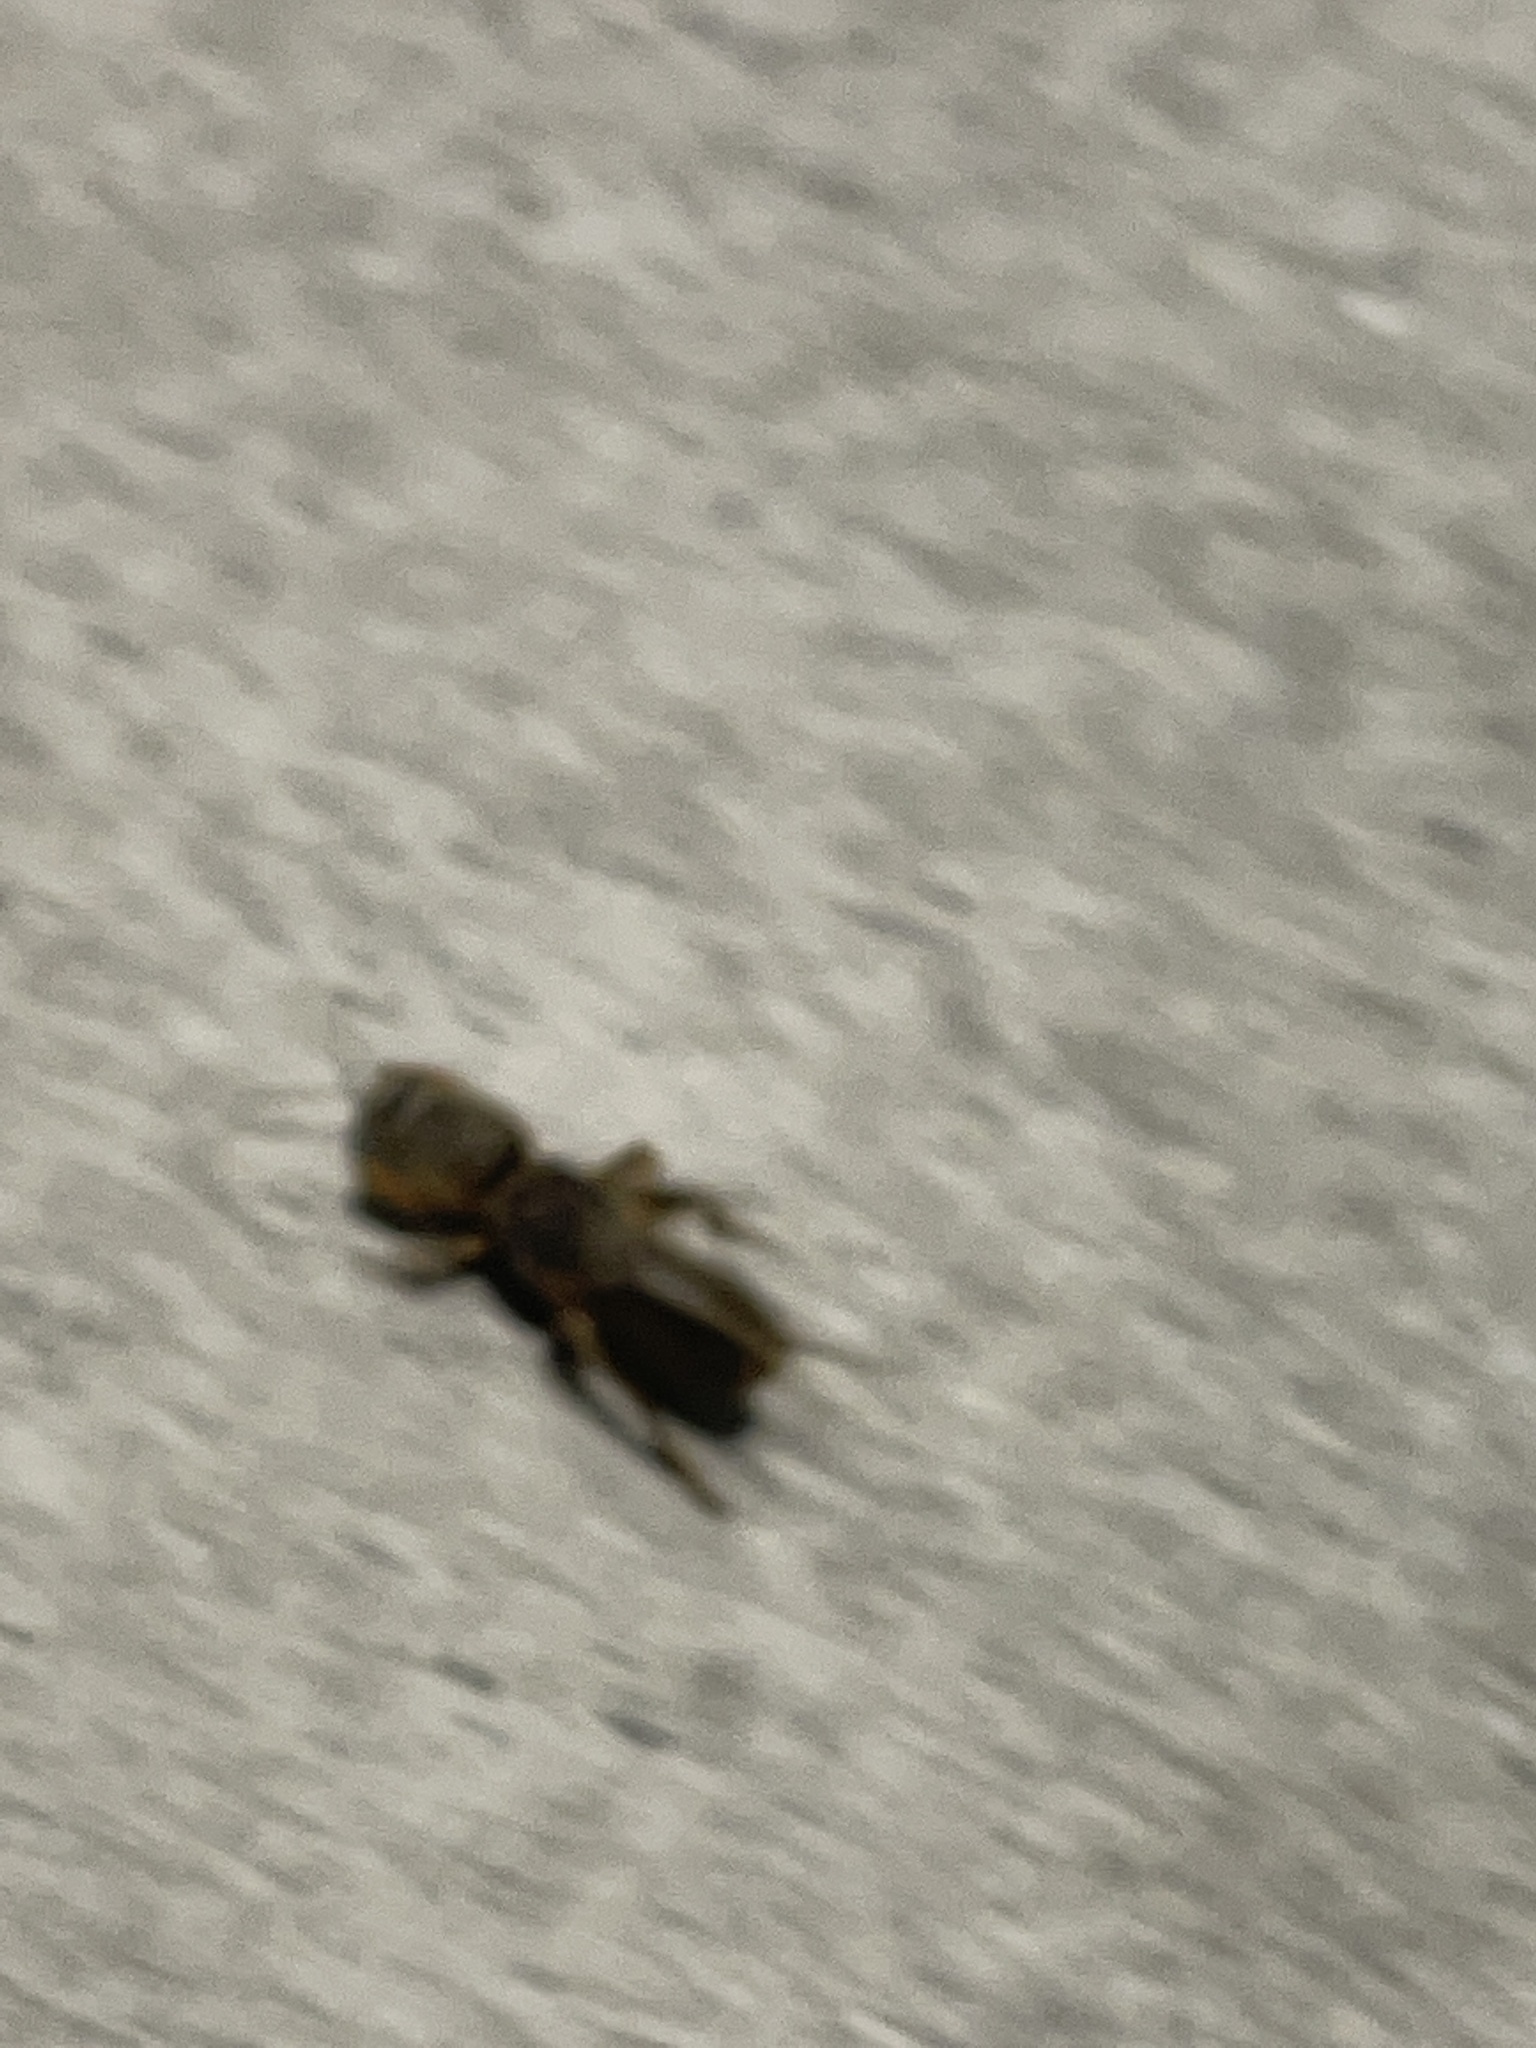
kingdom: Animalia
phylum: Arthropoda
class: Insecta
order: Orthoptera
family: Gryllotalpidae
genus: Neocurtilla
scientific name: Neocurtilla hexadactyla
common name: Northern mole cricket
